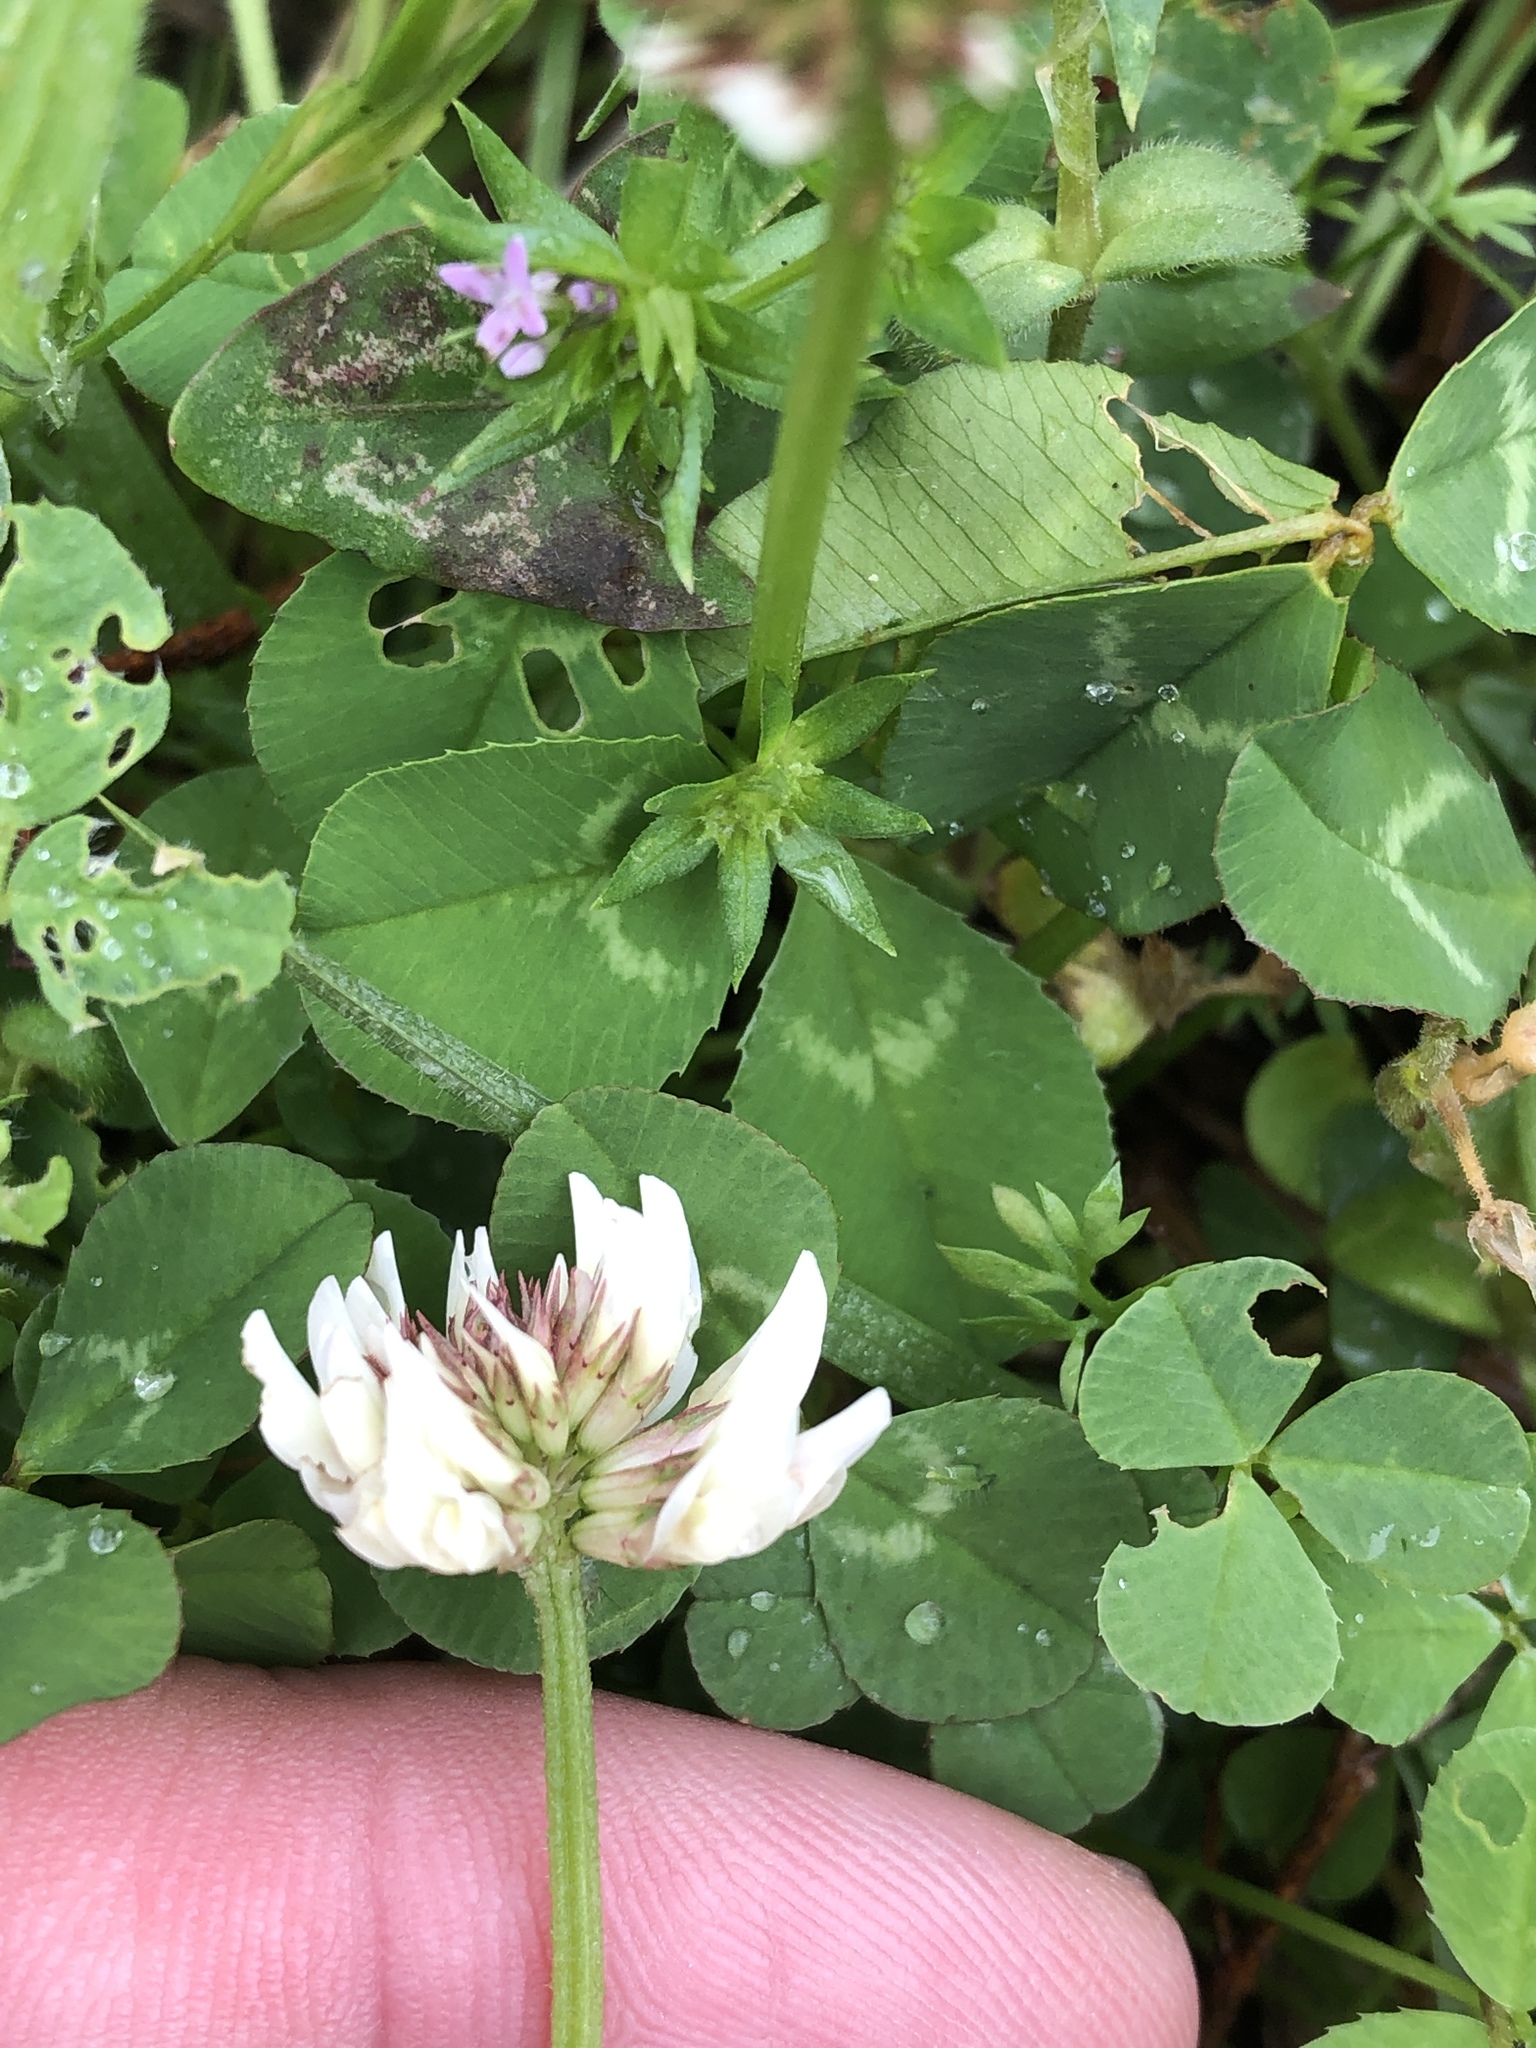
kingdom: Plantae
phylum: Tracheophyta
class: Magnoliopsida
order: Fabales
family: Fabaceae
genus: Trifolium
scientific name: Trifolium repens
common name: White clover
